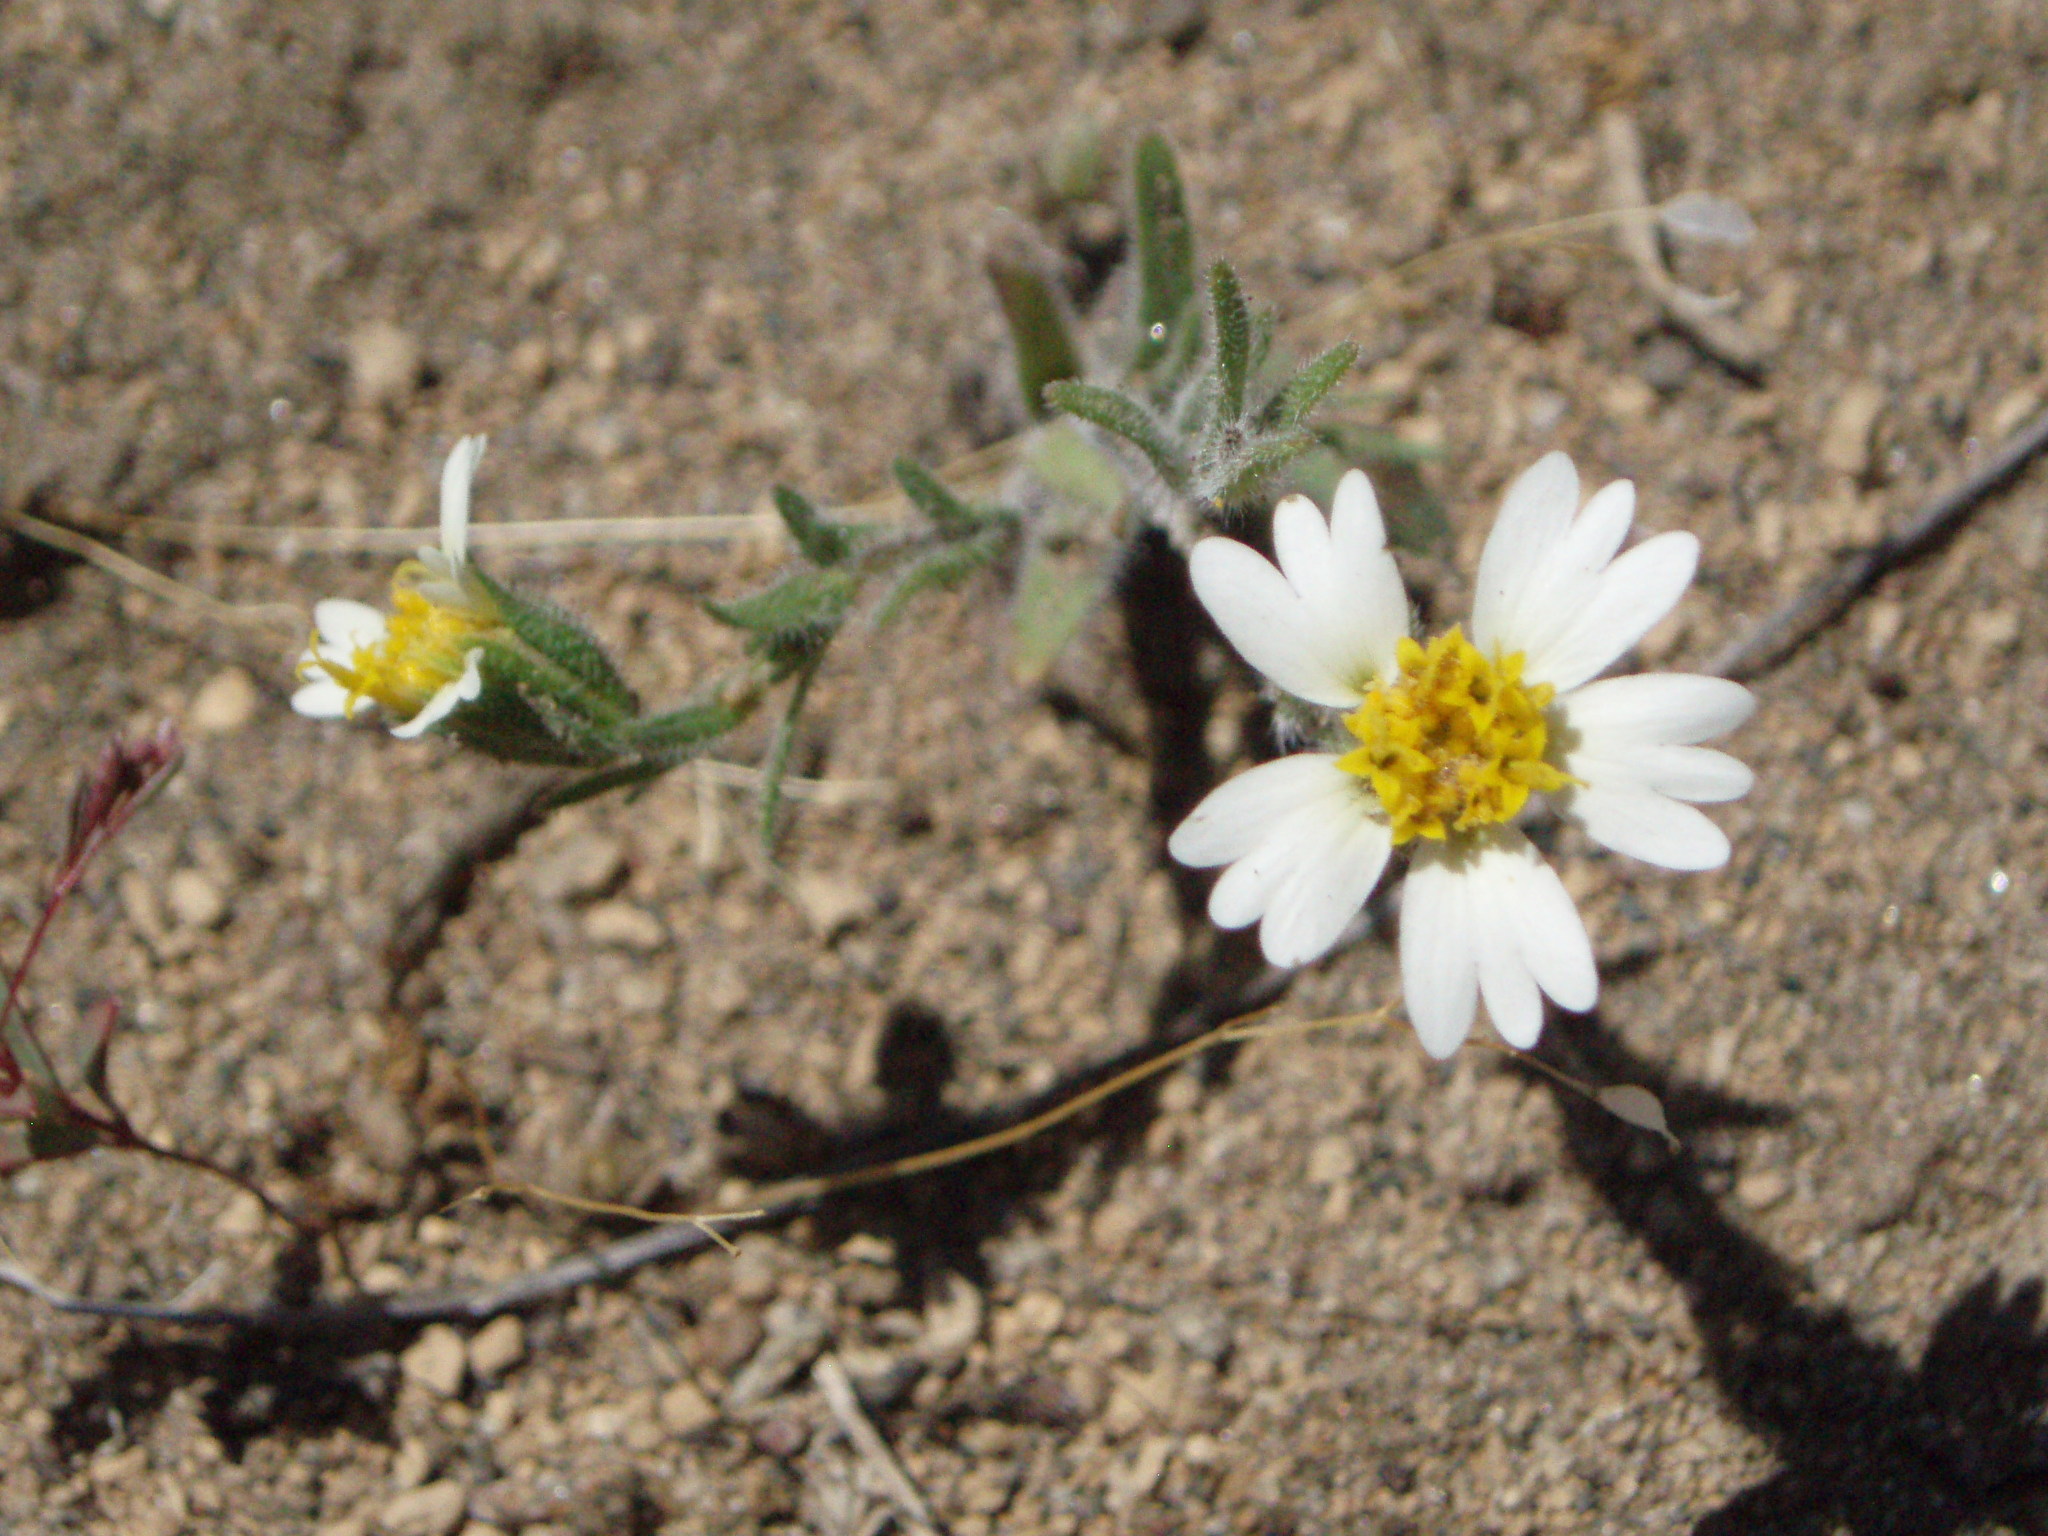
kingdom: Plantae
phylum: Tracheophyta
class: Magnoliopsida
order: Asterales
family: Asteraceae
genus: Layia
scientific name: Layia glandulosa
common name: White layia
